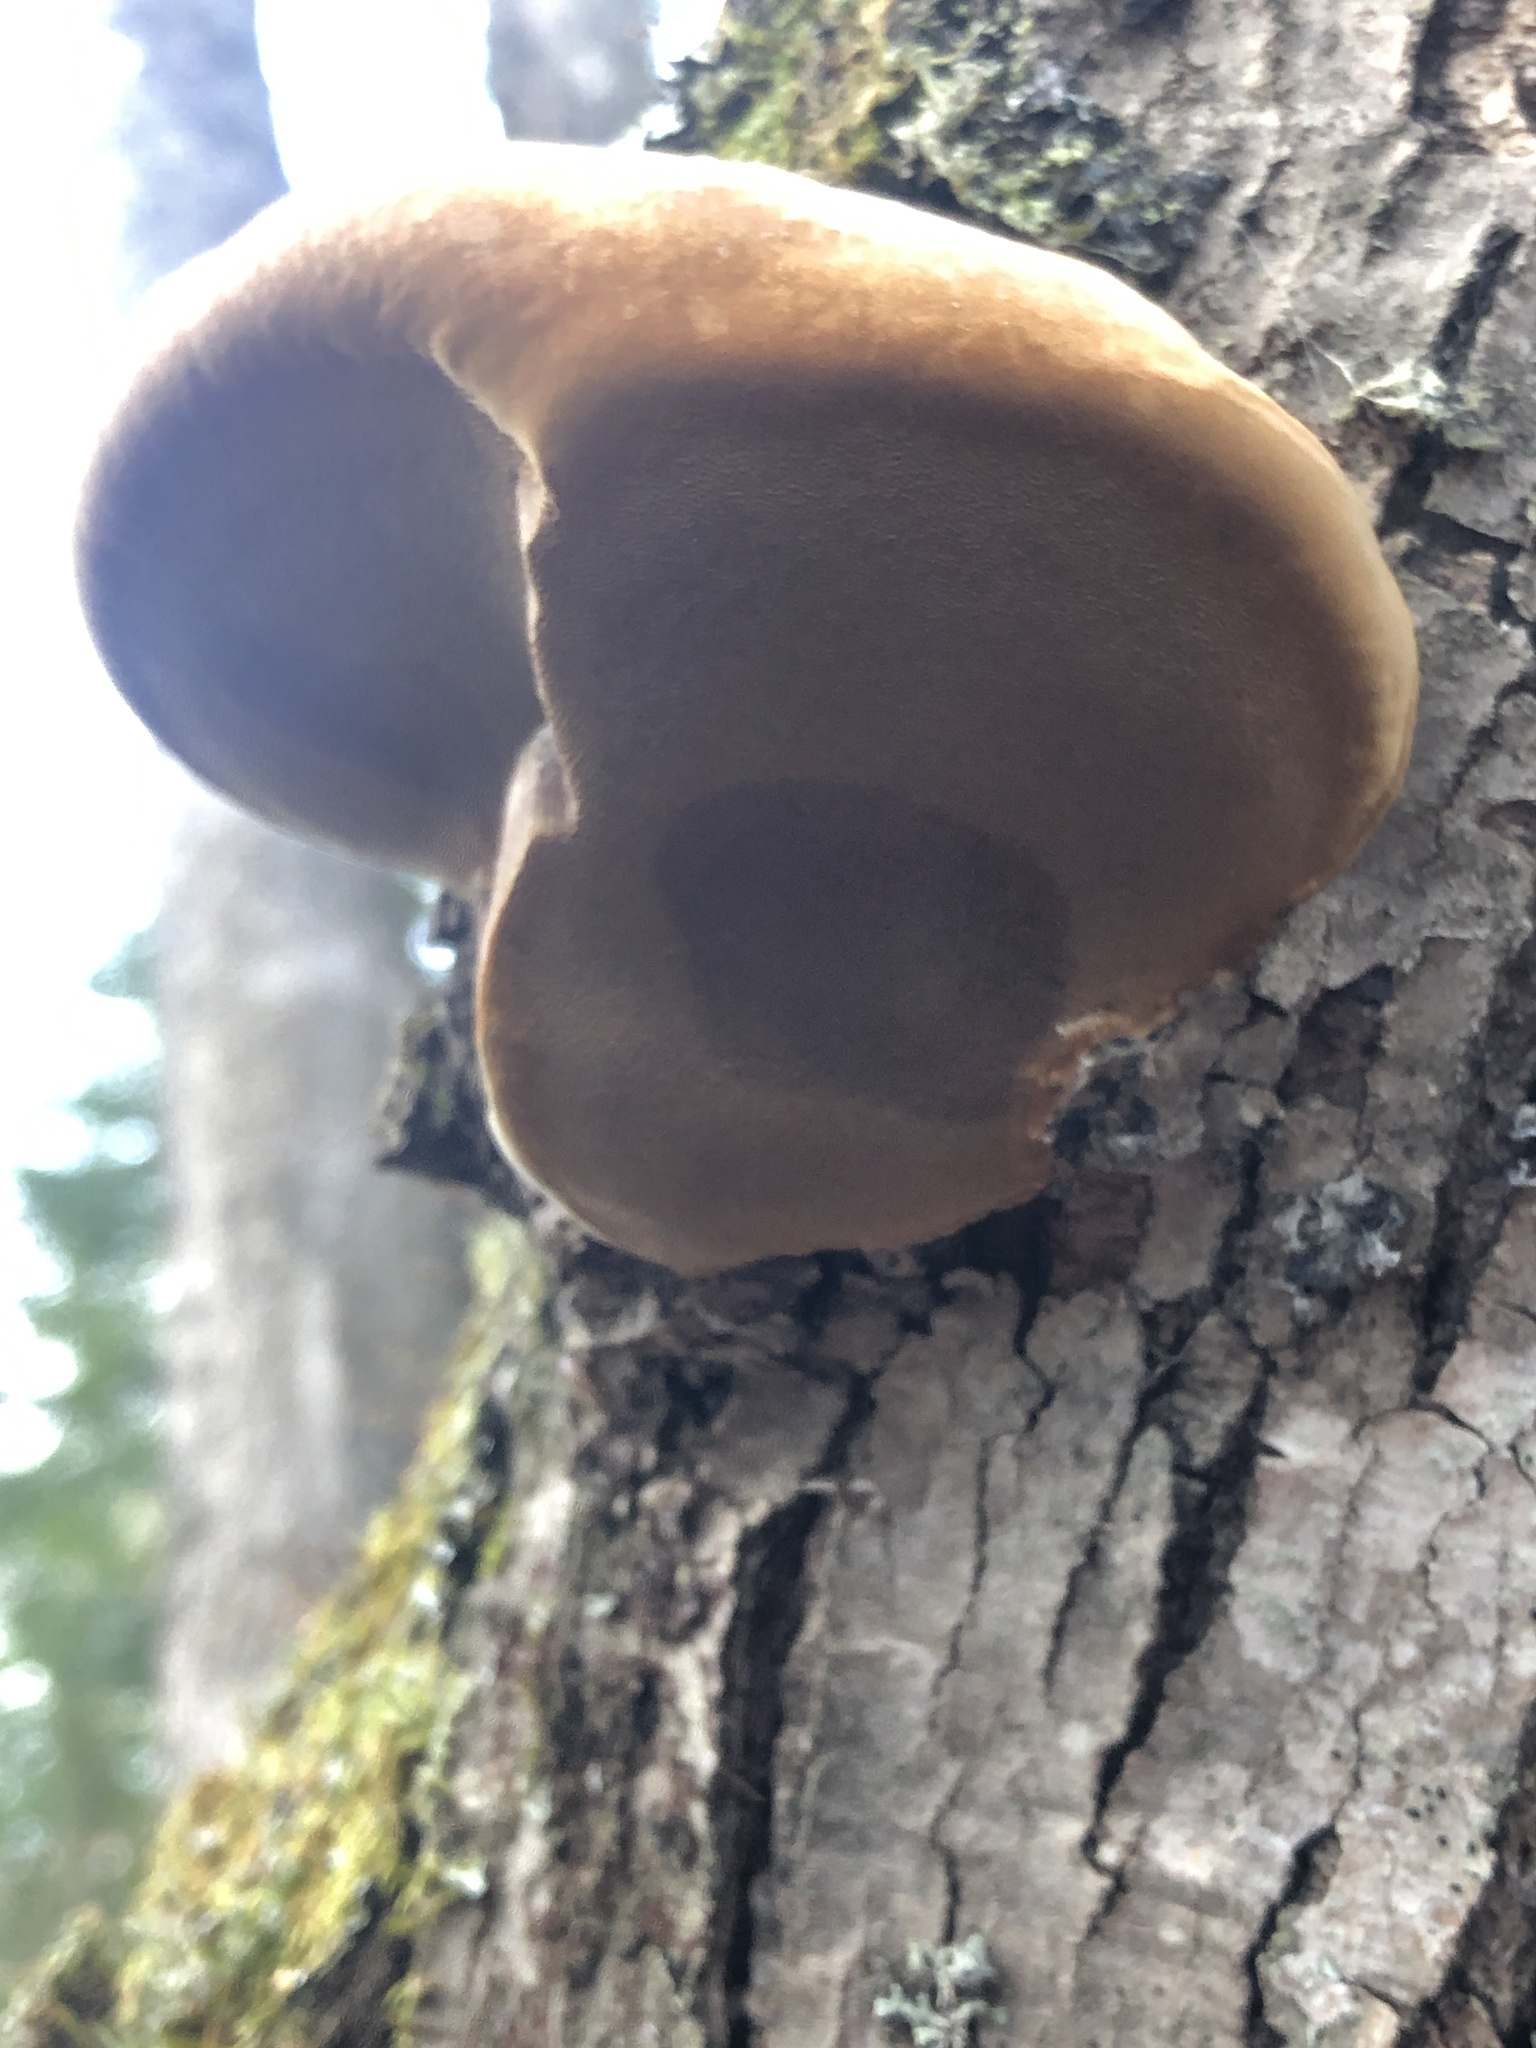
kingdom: Fungi
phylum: Basidiomycota
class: Agaricomycetes
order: Polyporales
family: Fomitopsidaceae
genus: Fomitopsis
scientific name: Fomitopsis mounceae
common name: Northern red belt
